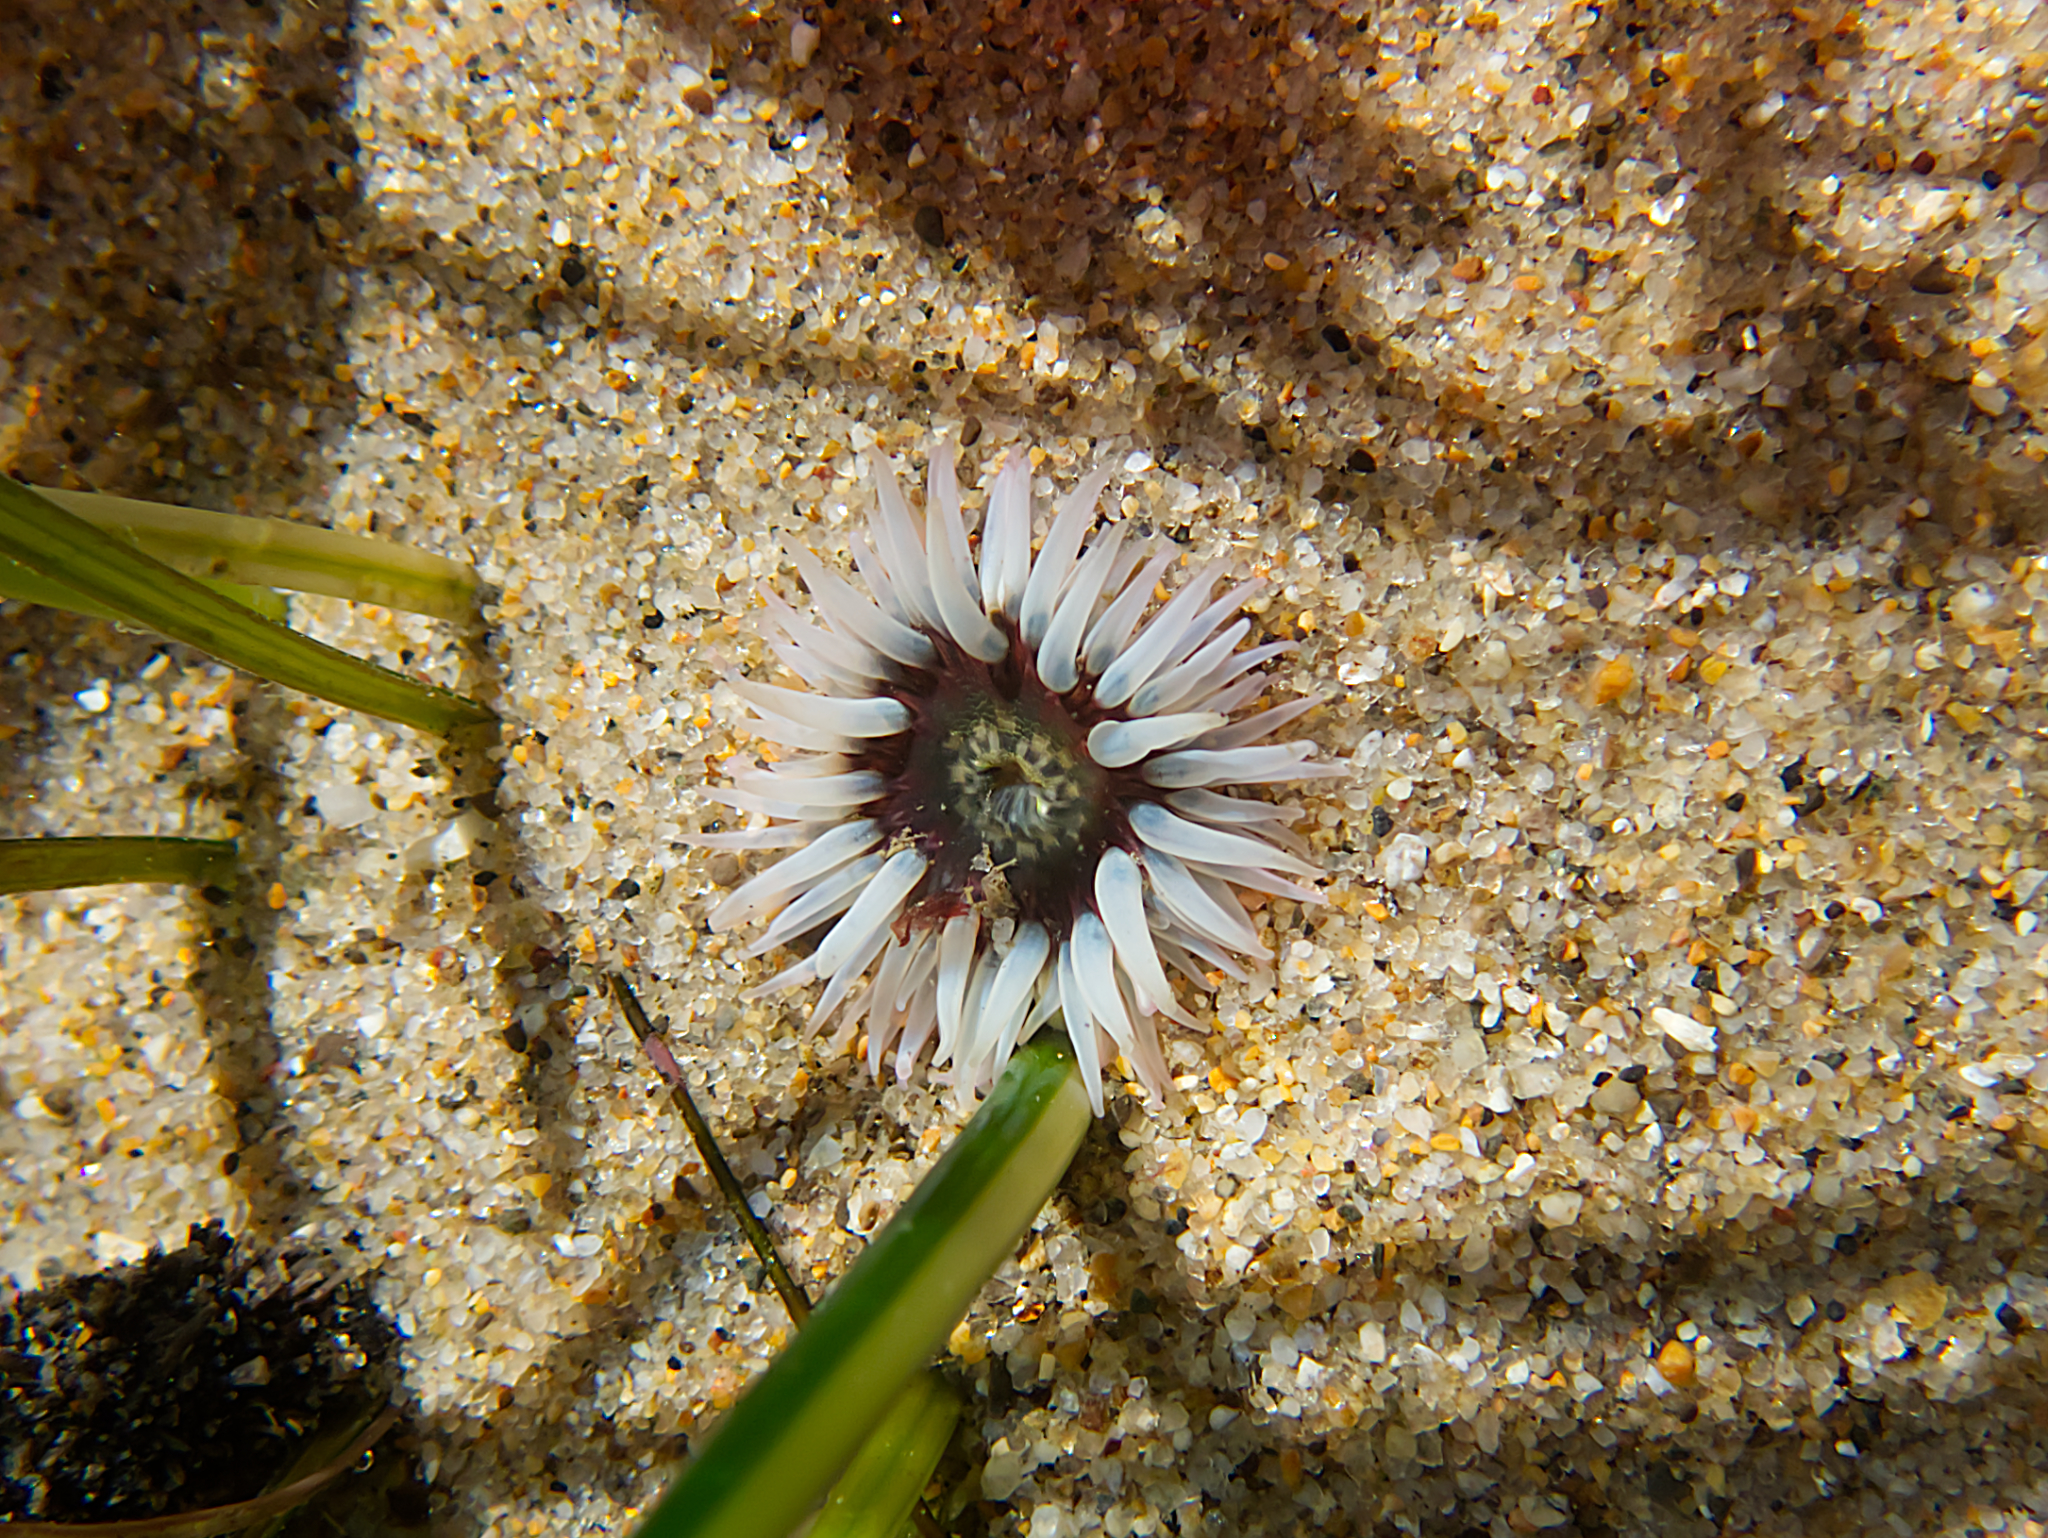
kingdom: Animalia
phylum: Cnidaria
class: Anthozoa
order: Actiniaria
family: Actiniidae
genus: Anthopleura
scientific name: Anthopleura artemisia
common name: Buried sea anemone
